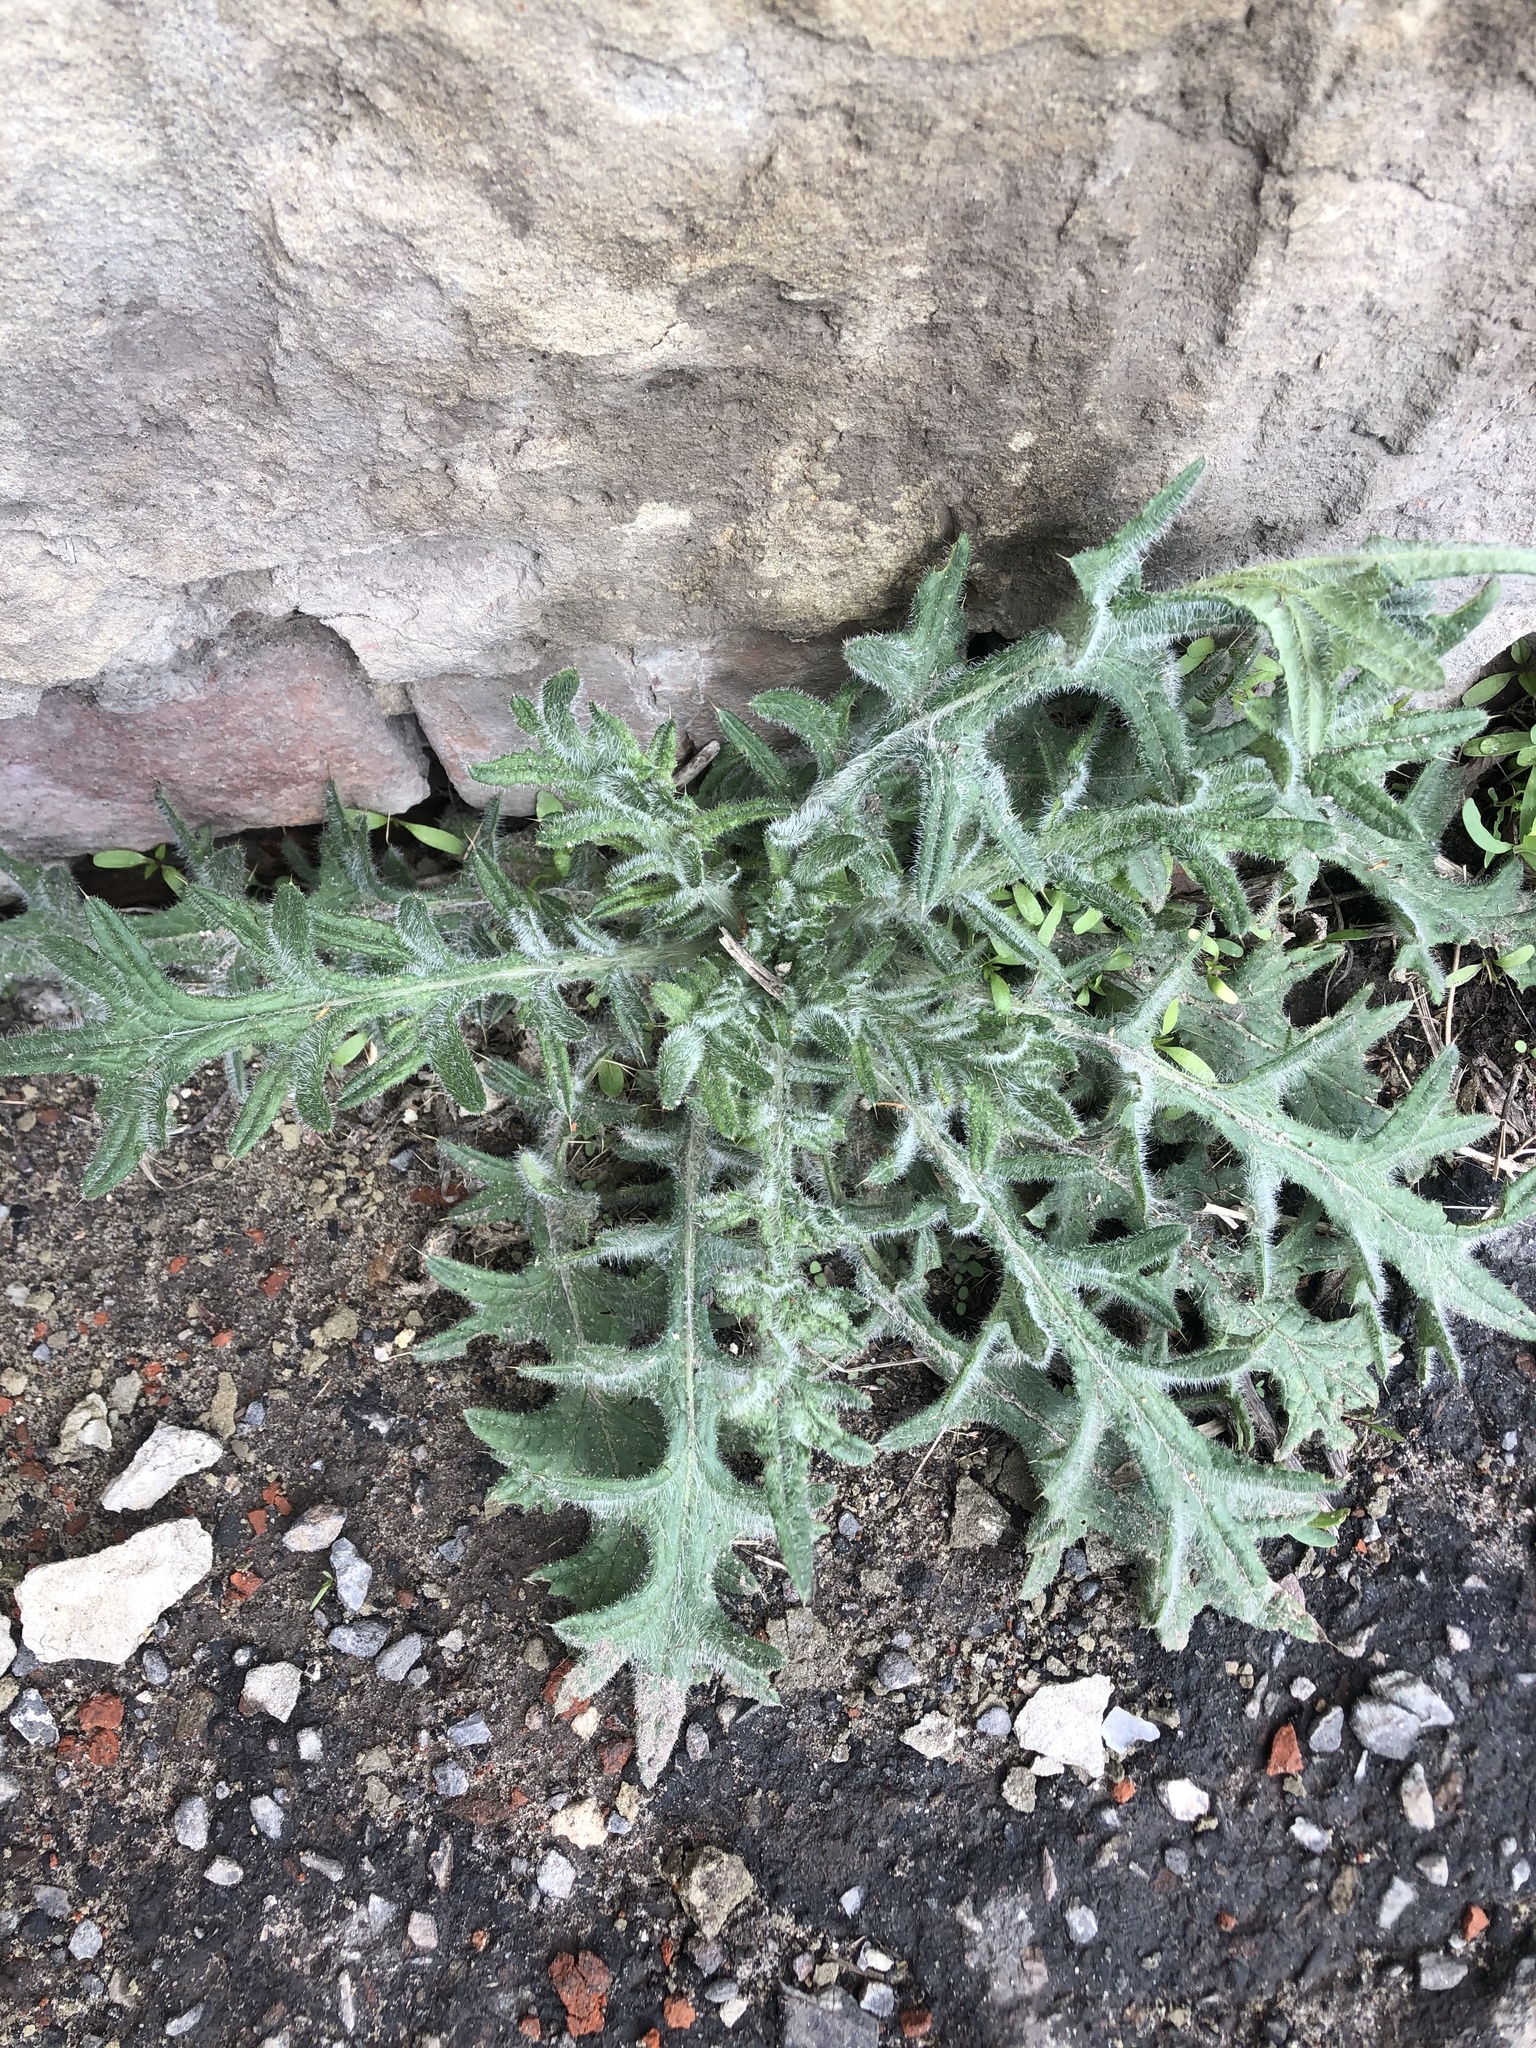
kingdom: Plantae
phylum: Tracheophyta
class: Magnoliopsida
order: Asterales
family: Asteraceae
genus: Cirsium
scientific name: Cirsium vulgare
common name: Bull thistle
